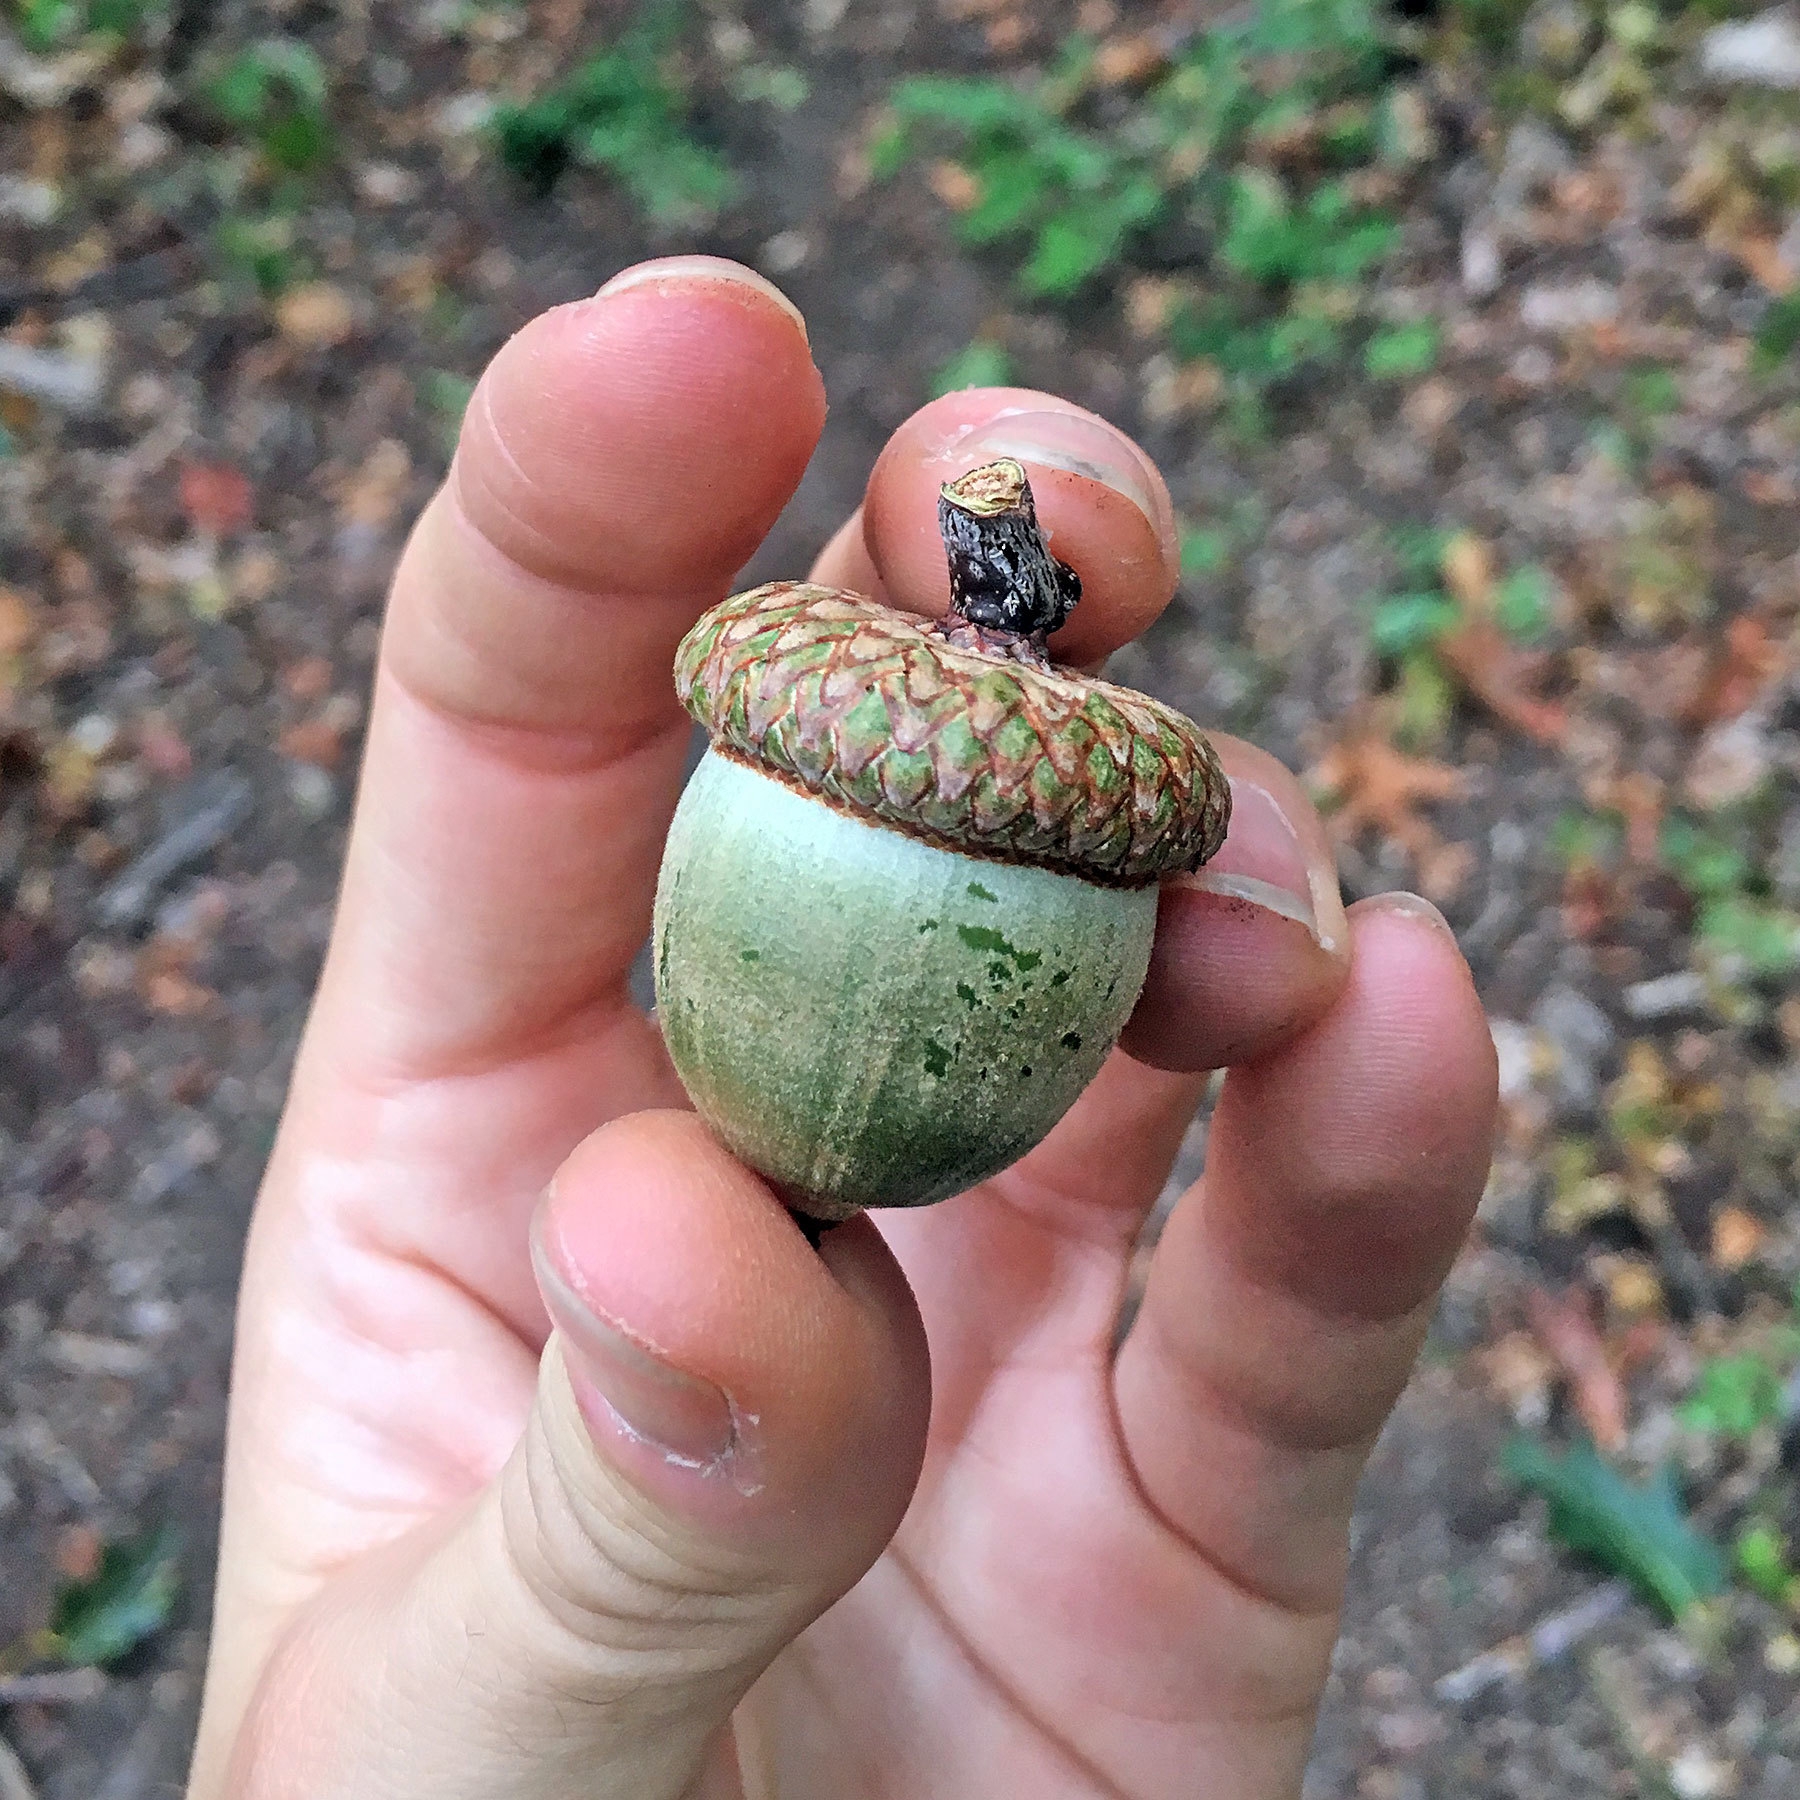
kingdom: Plantae
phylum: Tracheophyta
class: Magnoliopsida
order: Fagales
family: Fagaceae
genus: Quercus
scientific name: Quercus rubra
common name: Red oak
